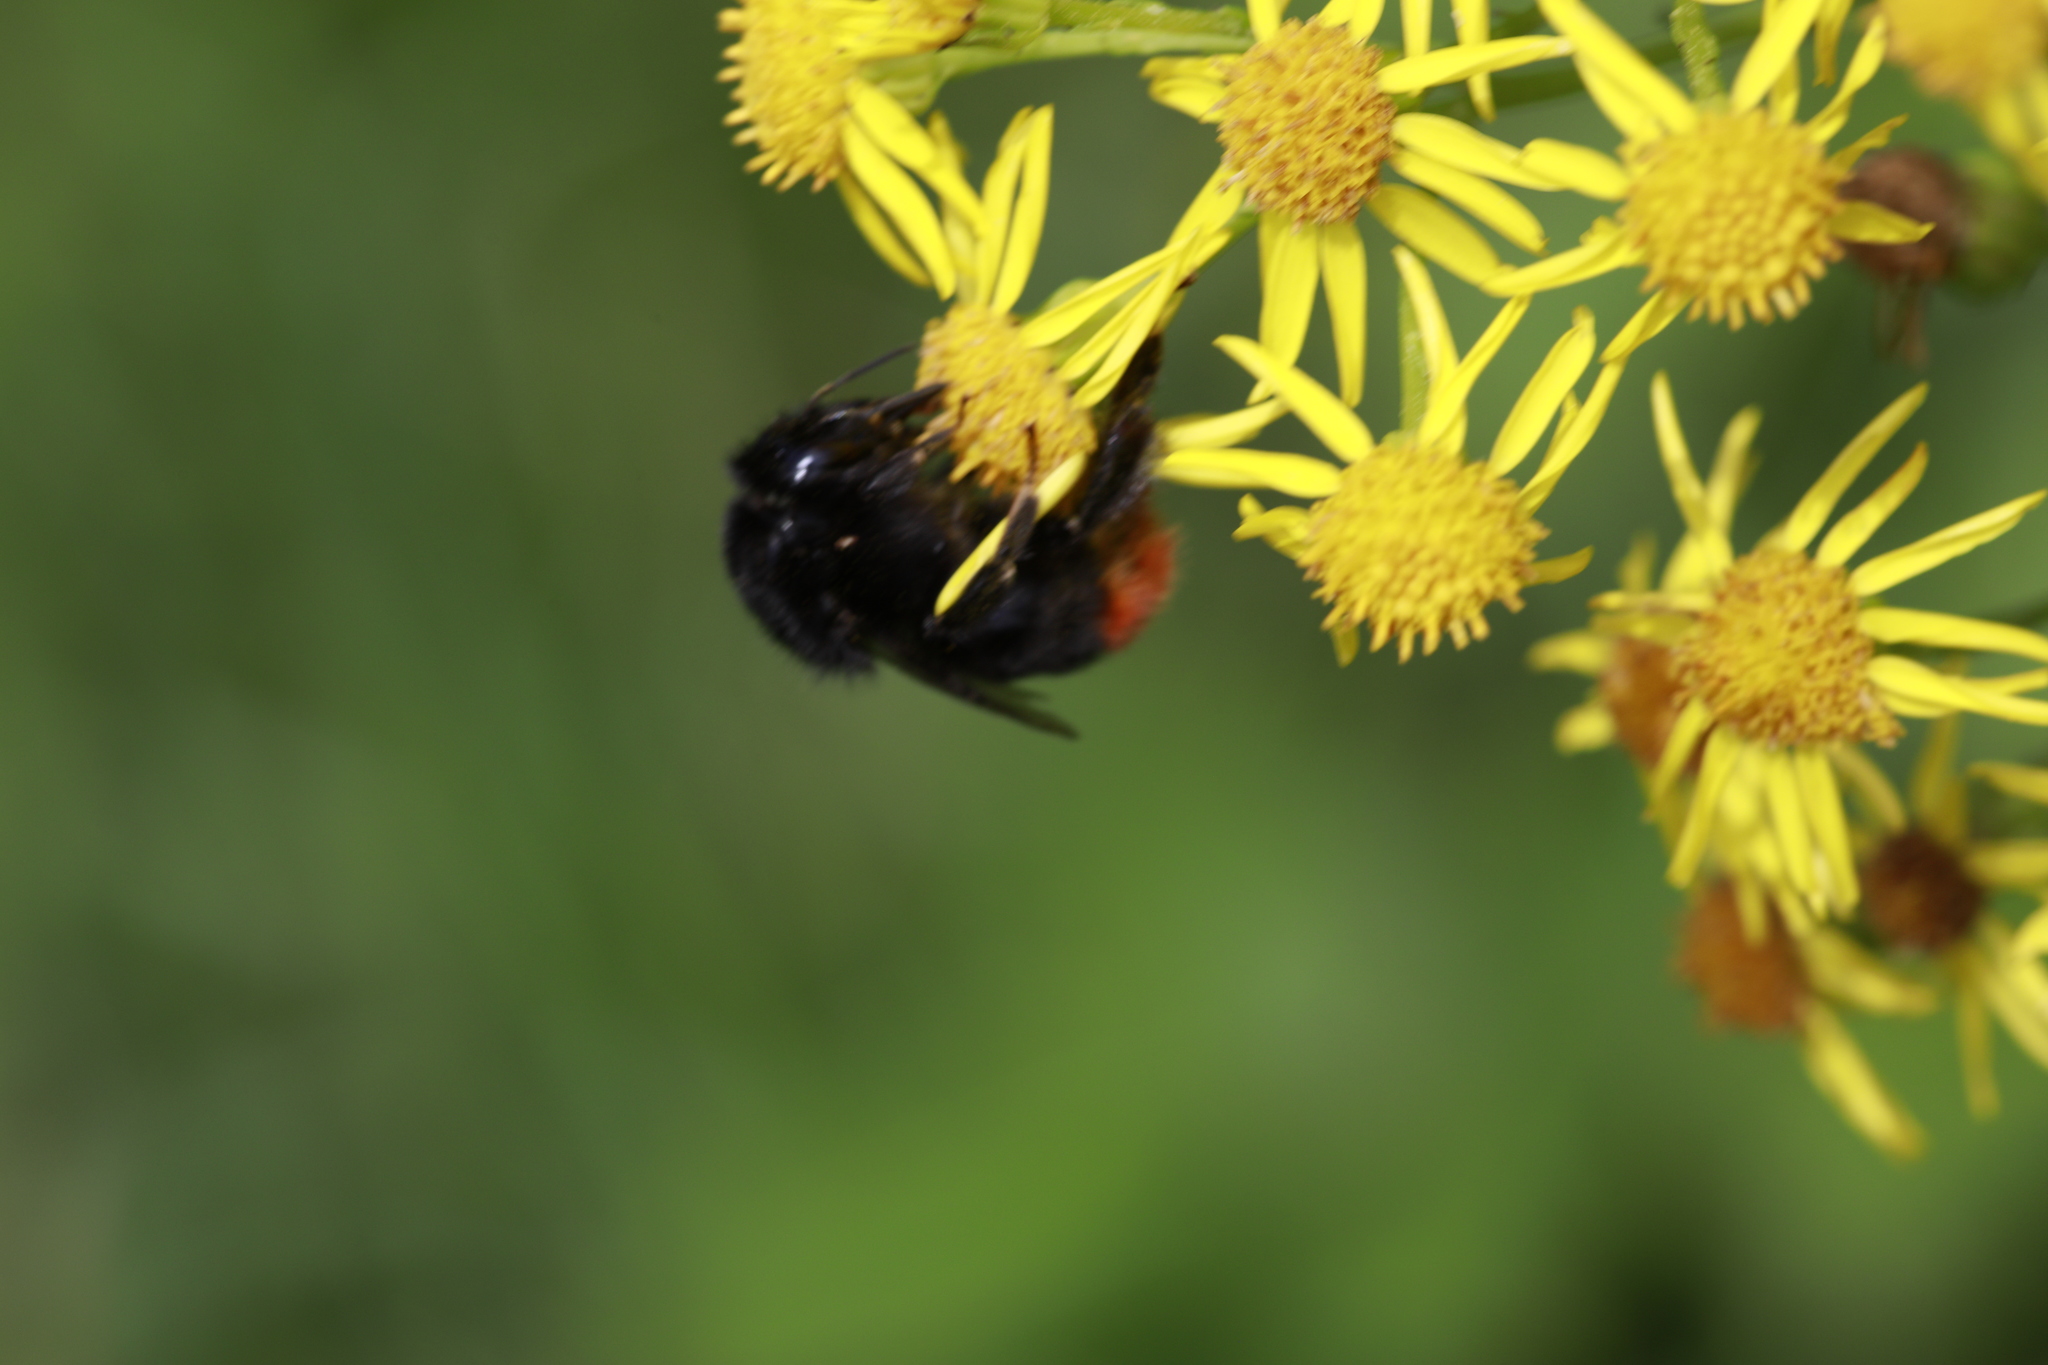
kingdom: Plantae
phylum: Tracheophyta
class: Magnoliopsida
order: Asterales
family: Asteraceae
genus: Jacobaea
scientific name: Jacobaea vulgaris
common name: Stinking willie
